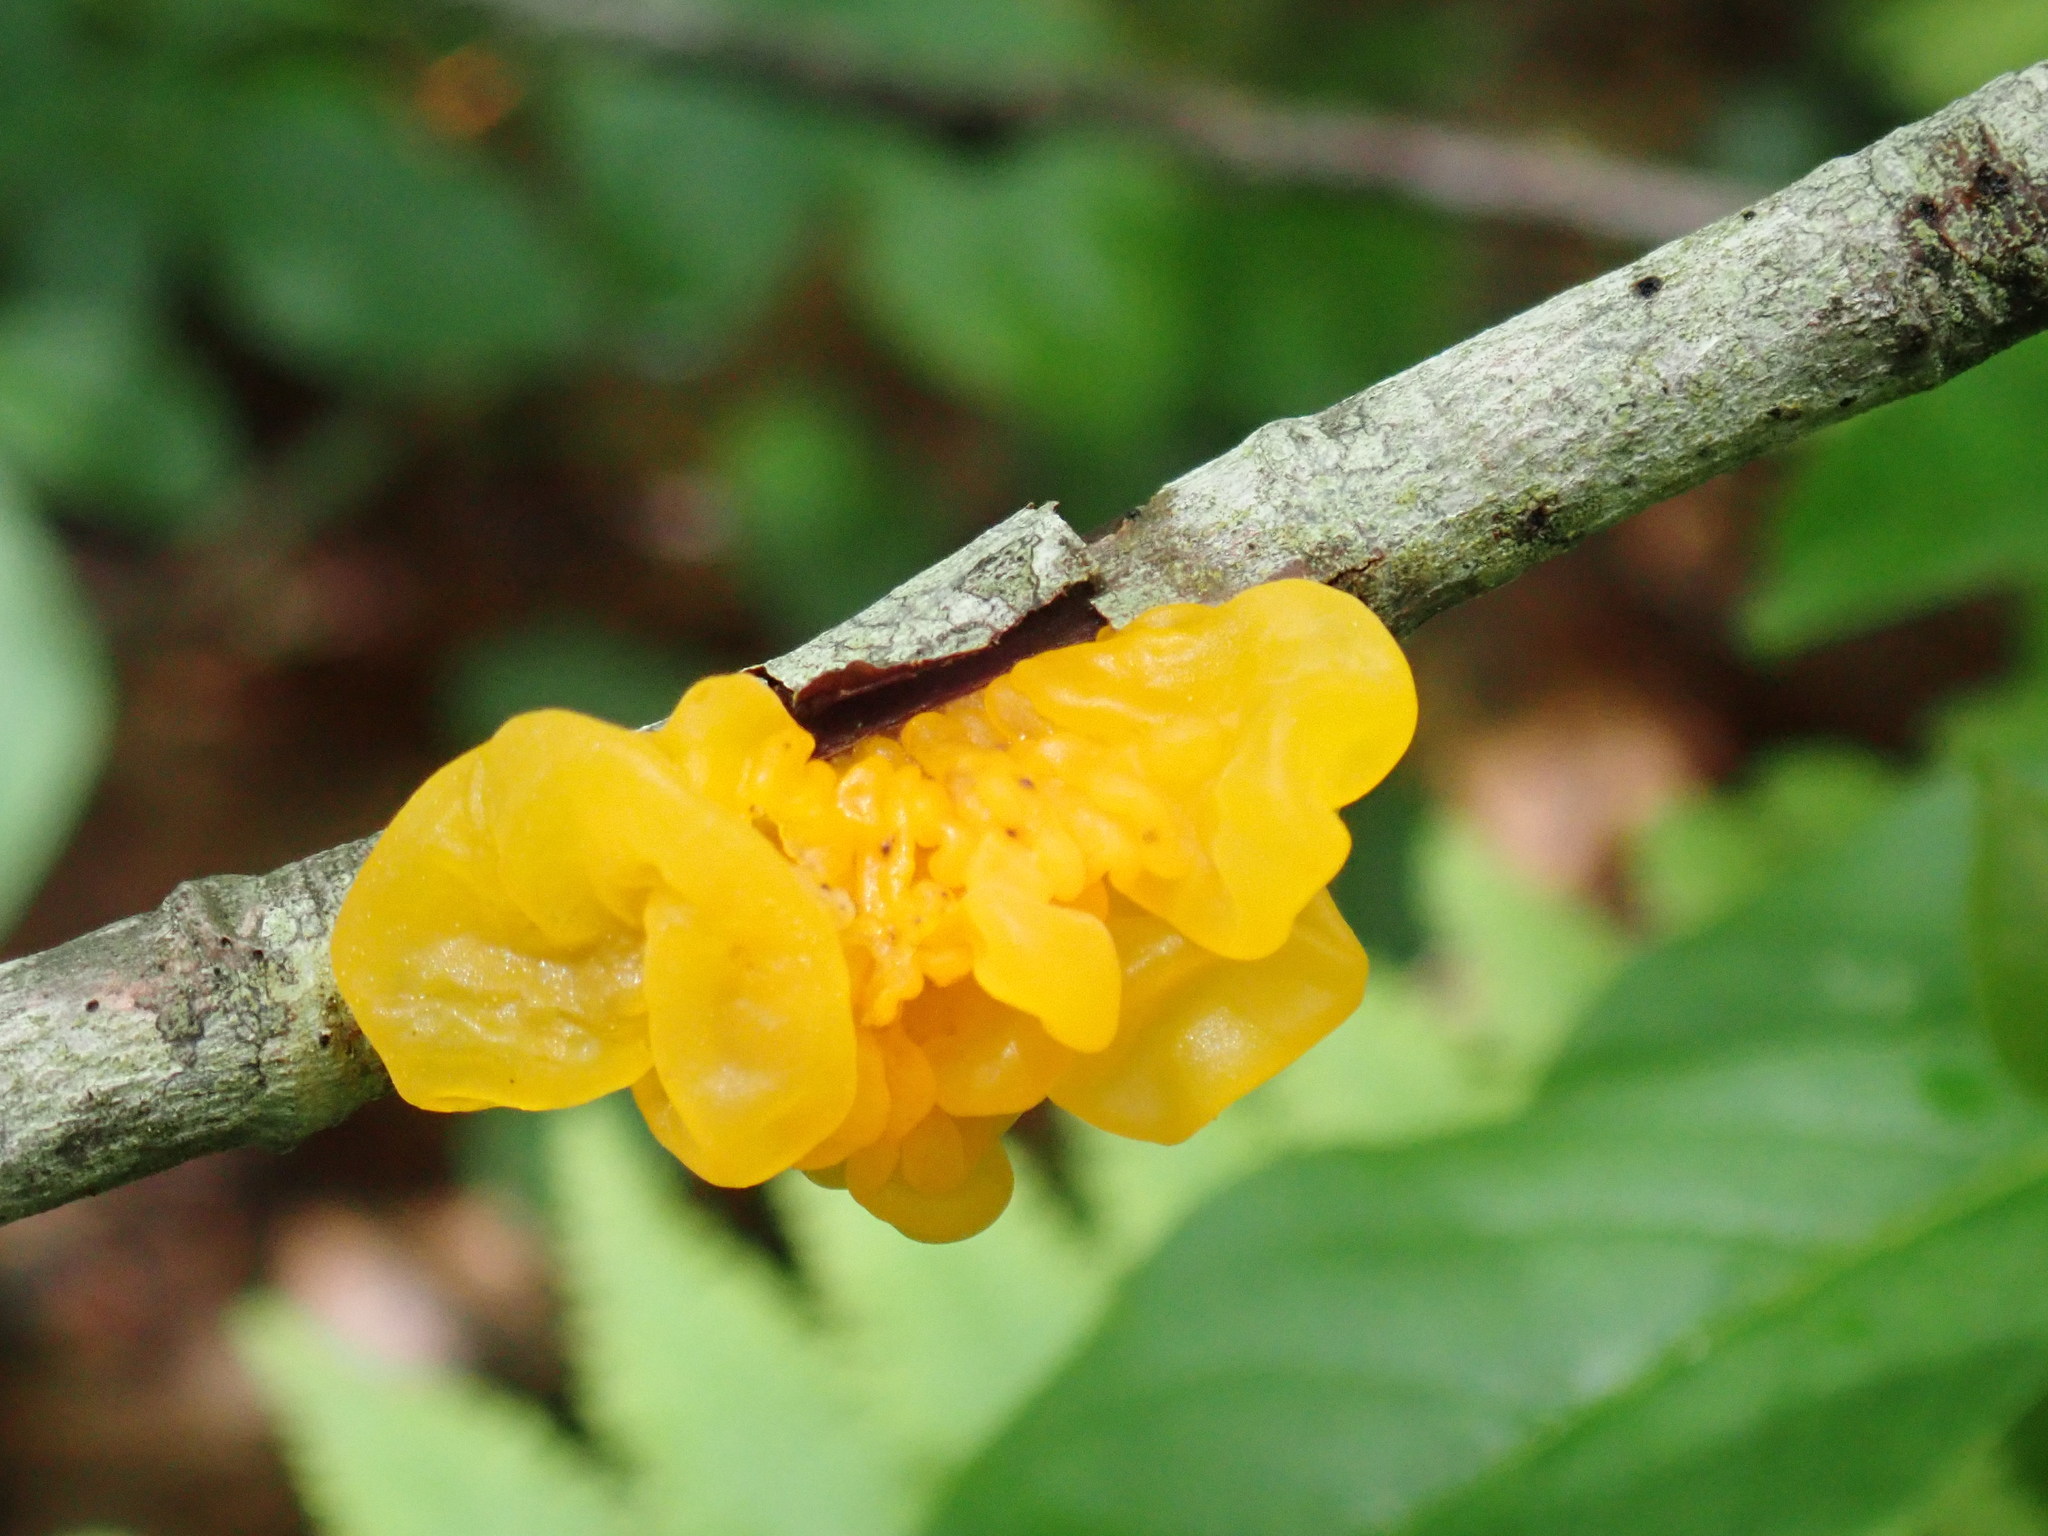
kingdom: Fungi
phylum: Basidiomycota
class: Tremellomycetes
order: Tremellales
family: Tremellaceae
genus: Tremella
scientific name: Tremella mesenterica
